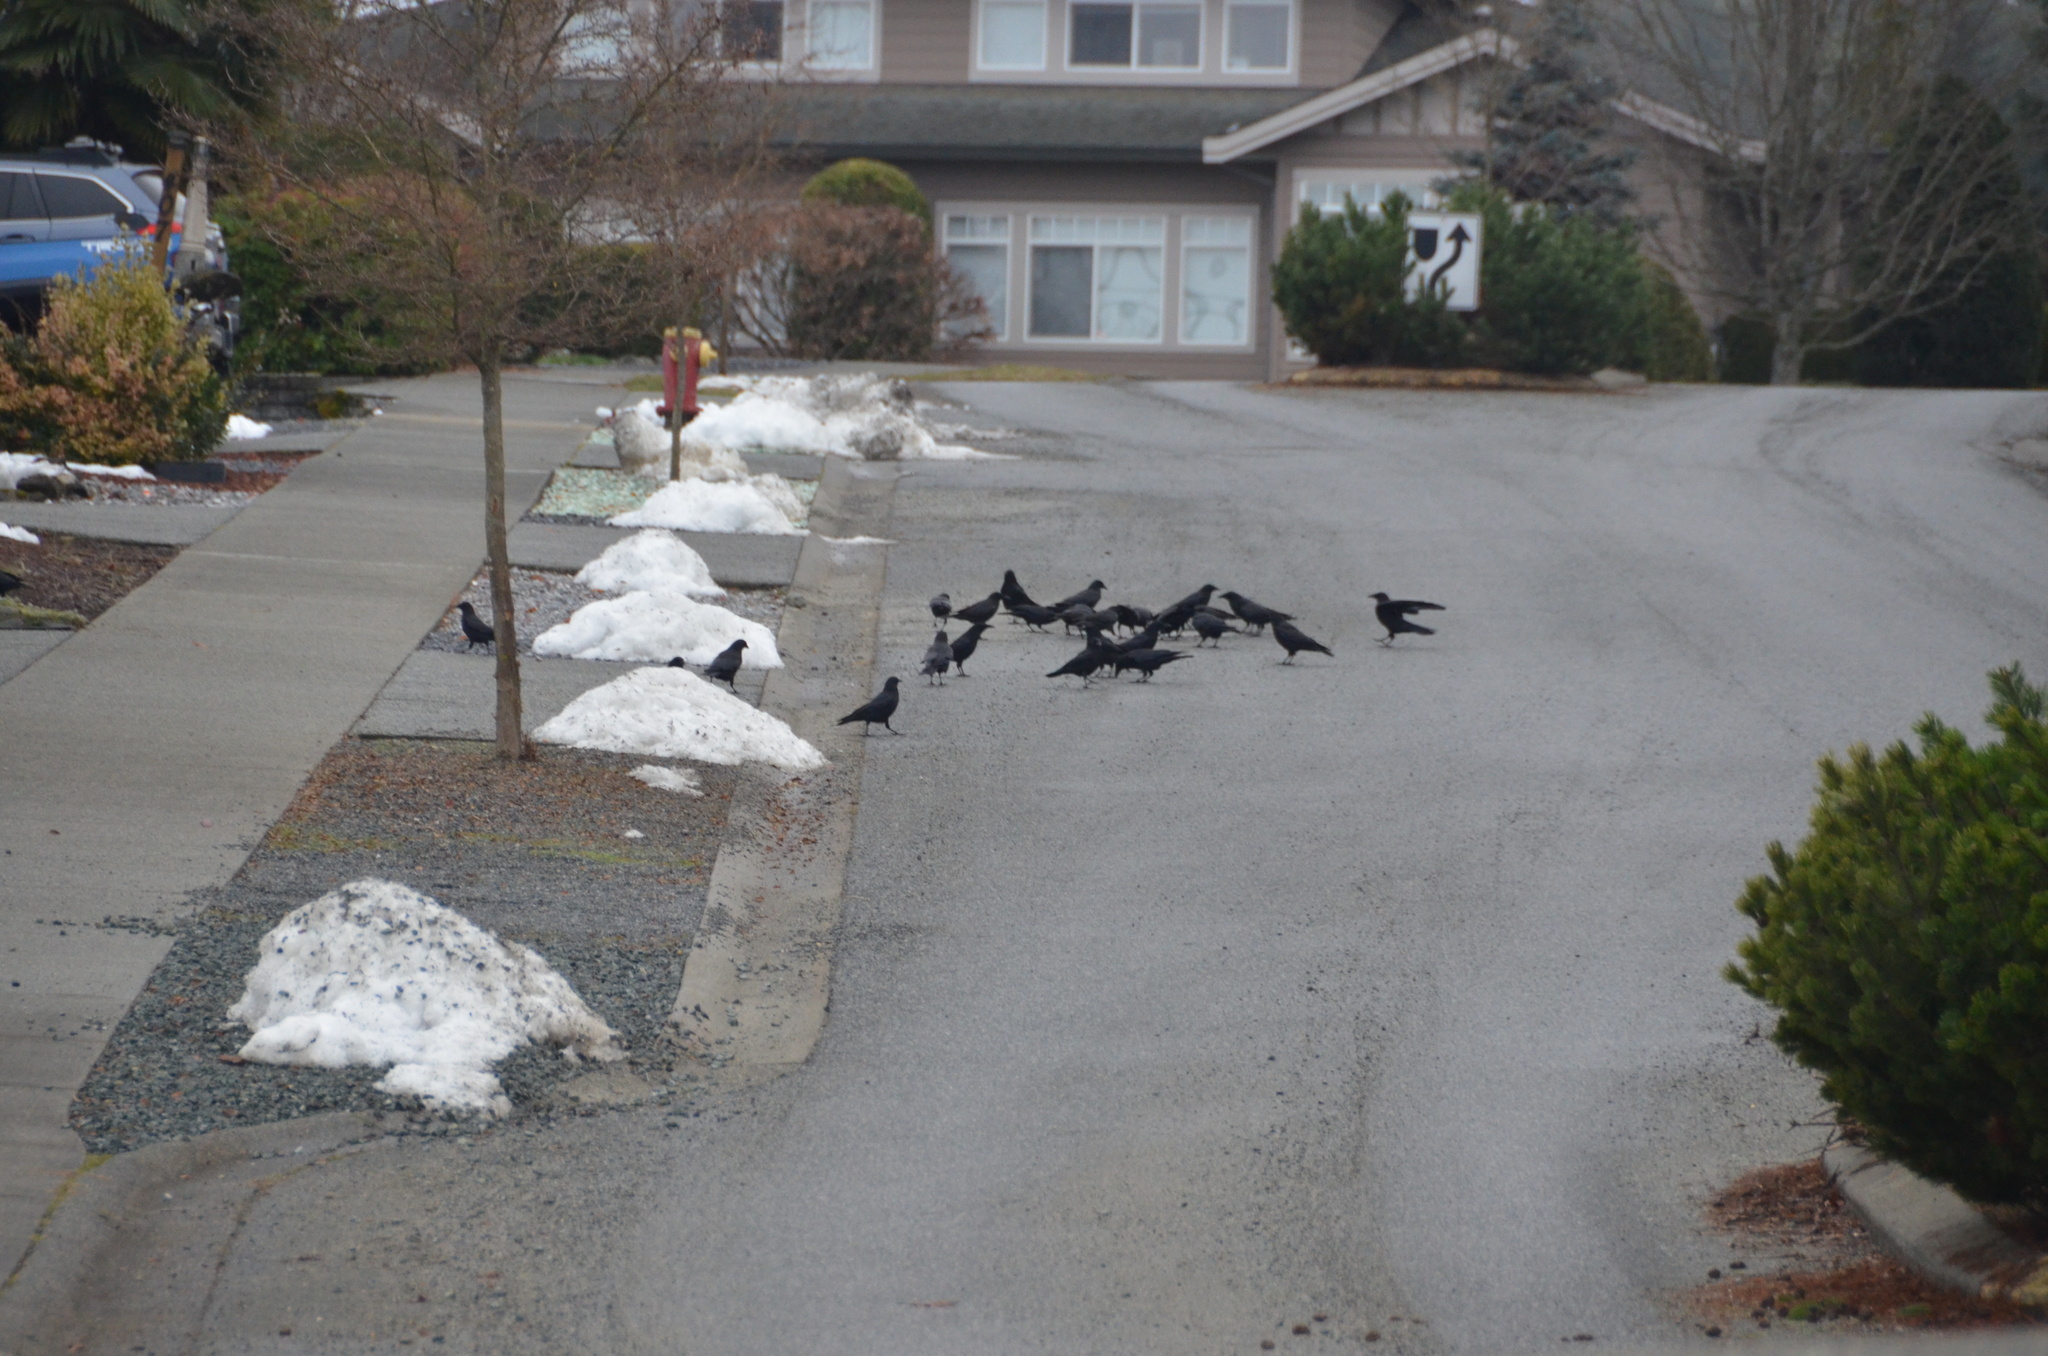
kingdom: Animalia
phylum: Chordata
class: Aves
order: Passeriformes
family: Corvidae
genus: Corvus
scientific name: Corvus brachyrhynchos
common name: American crow
